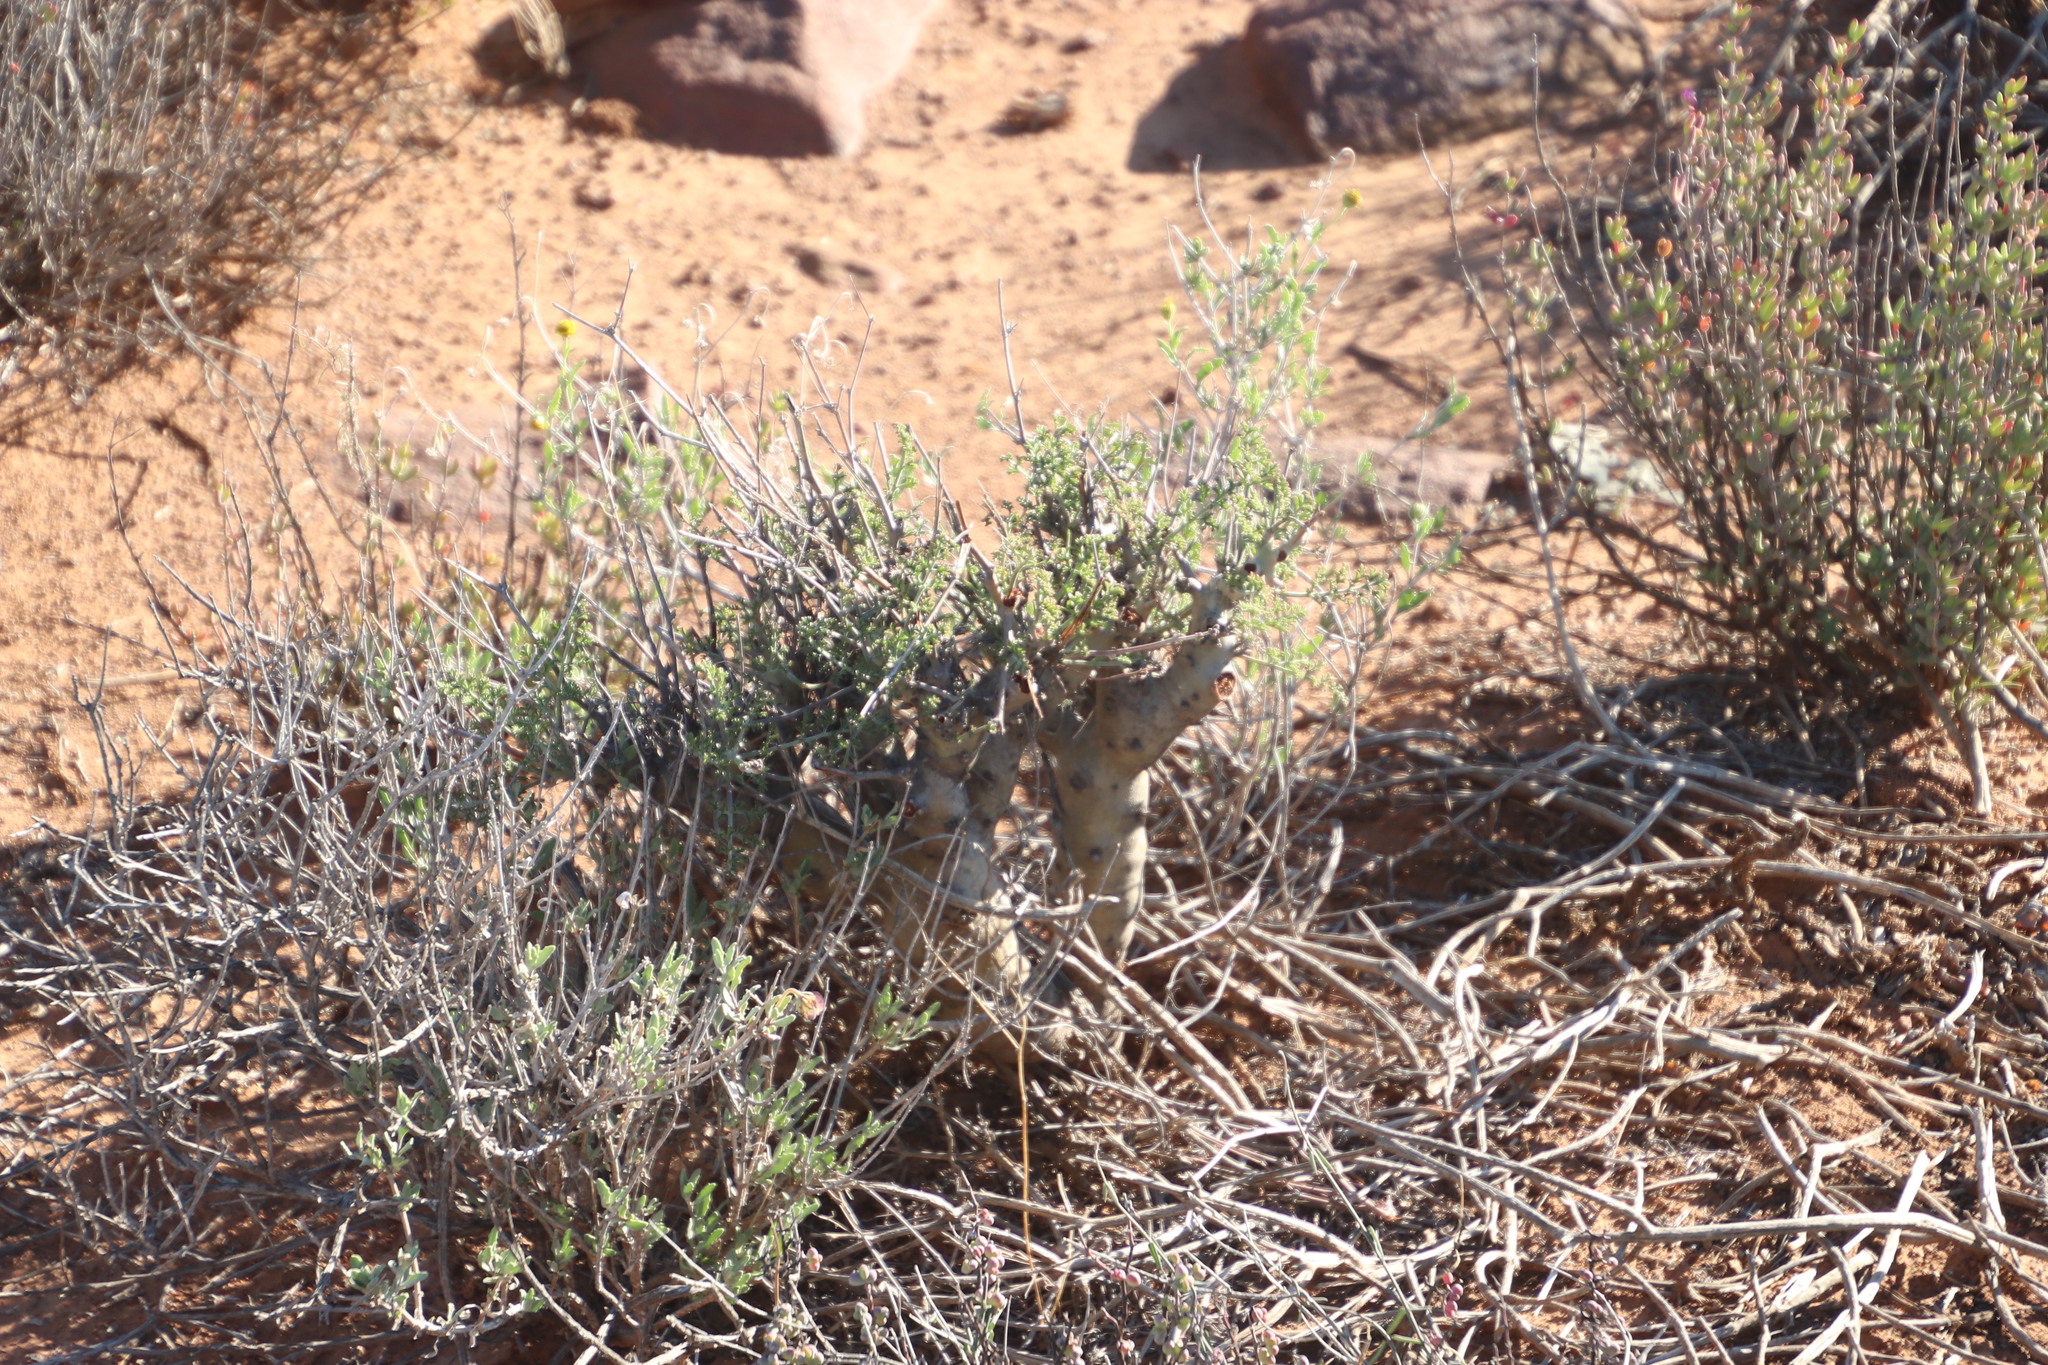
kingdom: Plantae
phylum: Tracheophyta
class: Magnoliopsida
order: Geraniales
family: Geraniaceae
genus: Pelargonium
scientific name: Pelargonium crithmifolium
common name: Samphire-leaf pelargonium
